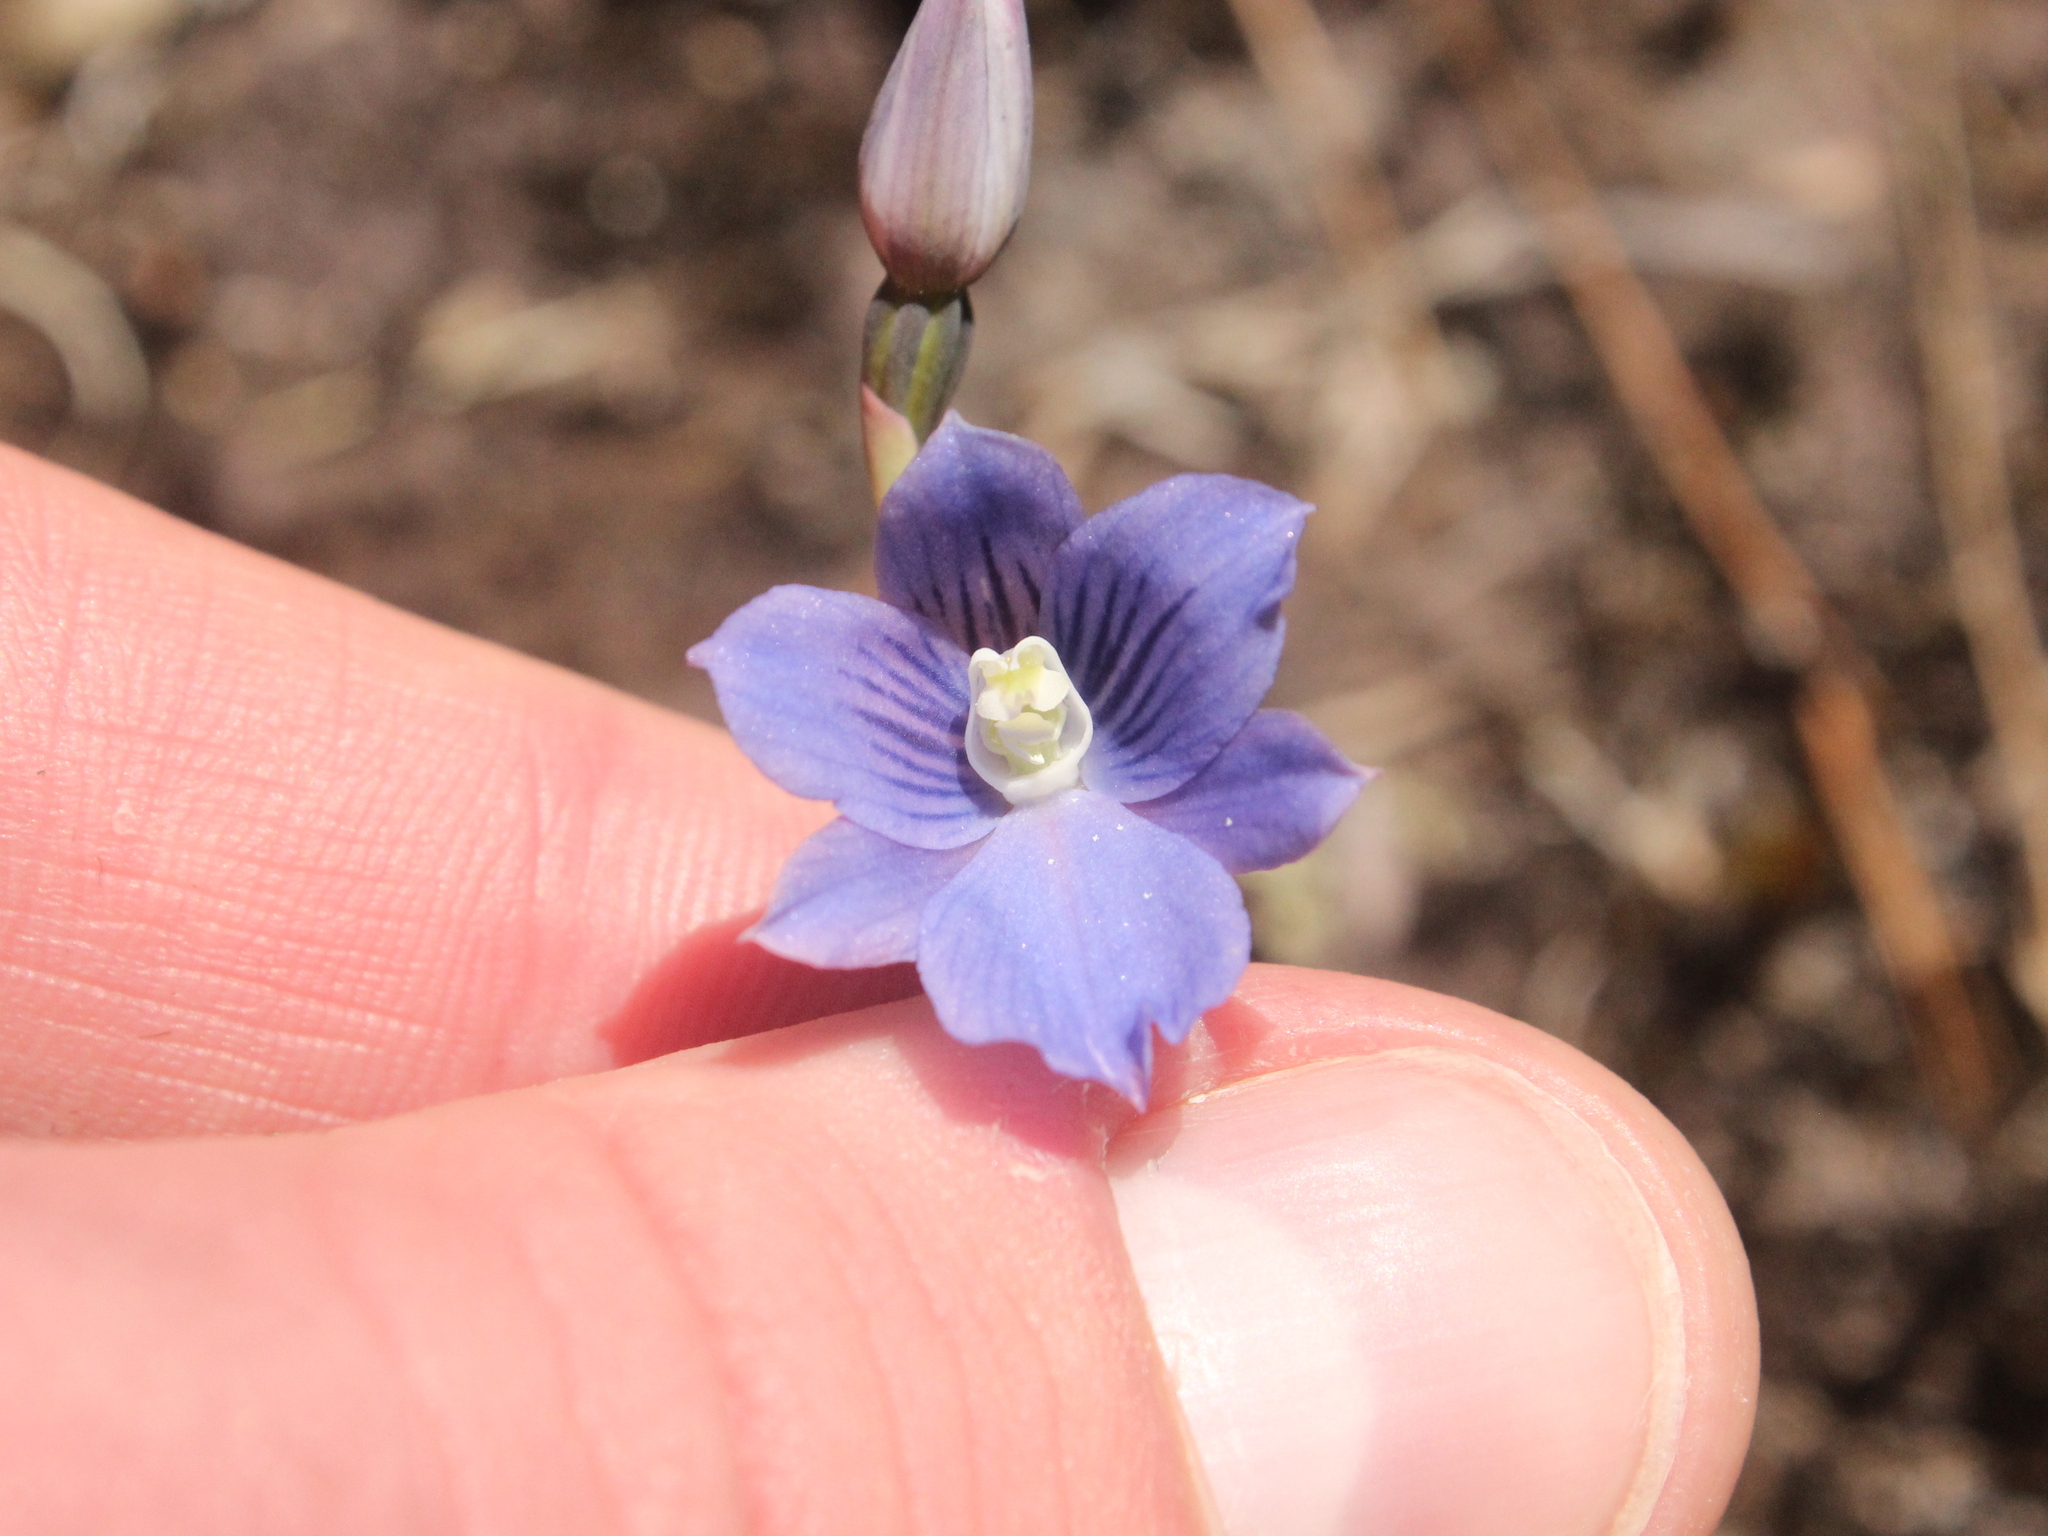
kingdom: Plantae
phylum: Tracheophyta
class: Liliopsida
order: Asparagales
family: Orchidaceae
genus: Thelymitra
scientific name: Thelymitra cyanea
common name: Blue sun-orchid
